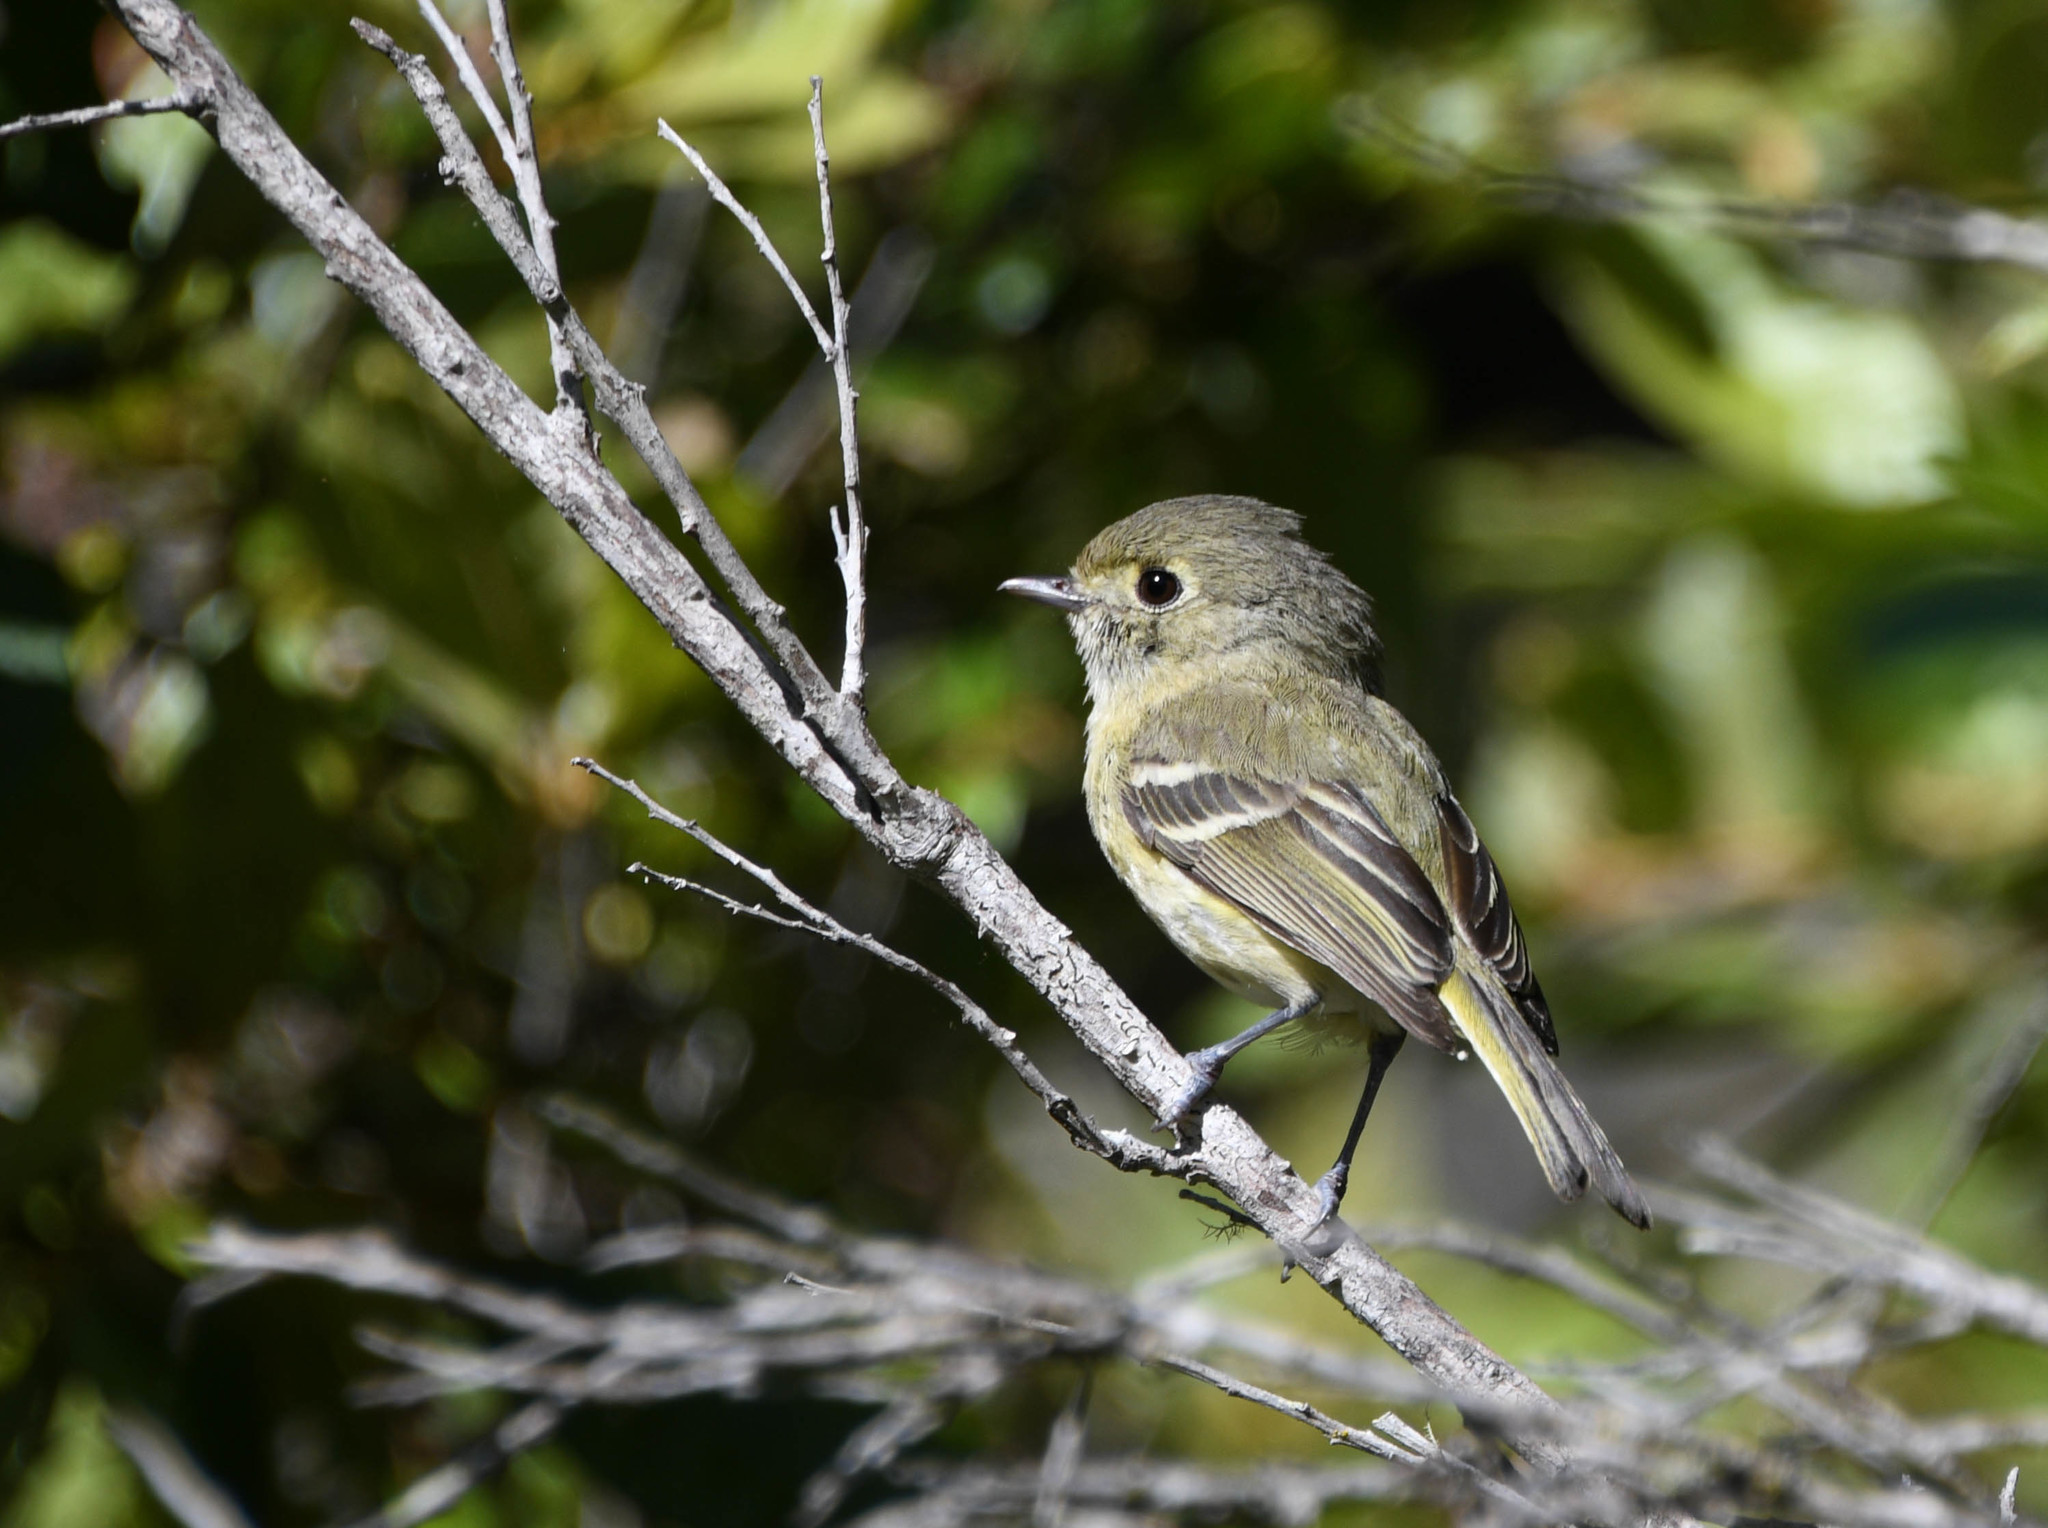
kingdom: Animalia
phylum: Chordata
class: Aves
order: Passeriformes
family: Vireonidae
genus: Vireo
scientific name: Vireo huttoni
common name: Hutton's vireo
